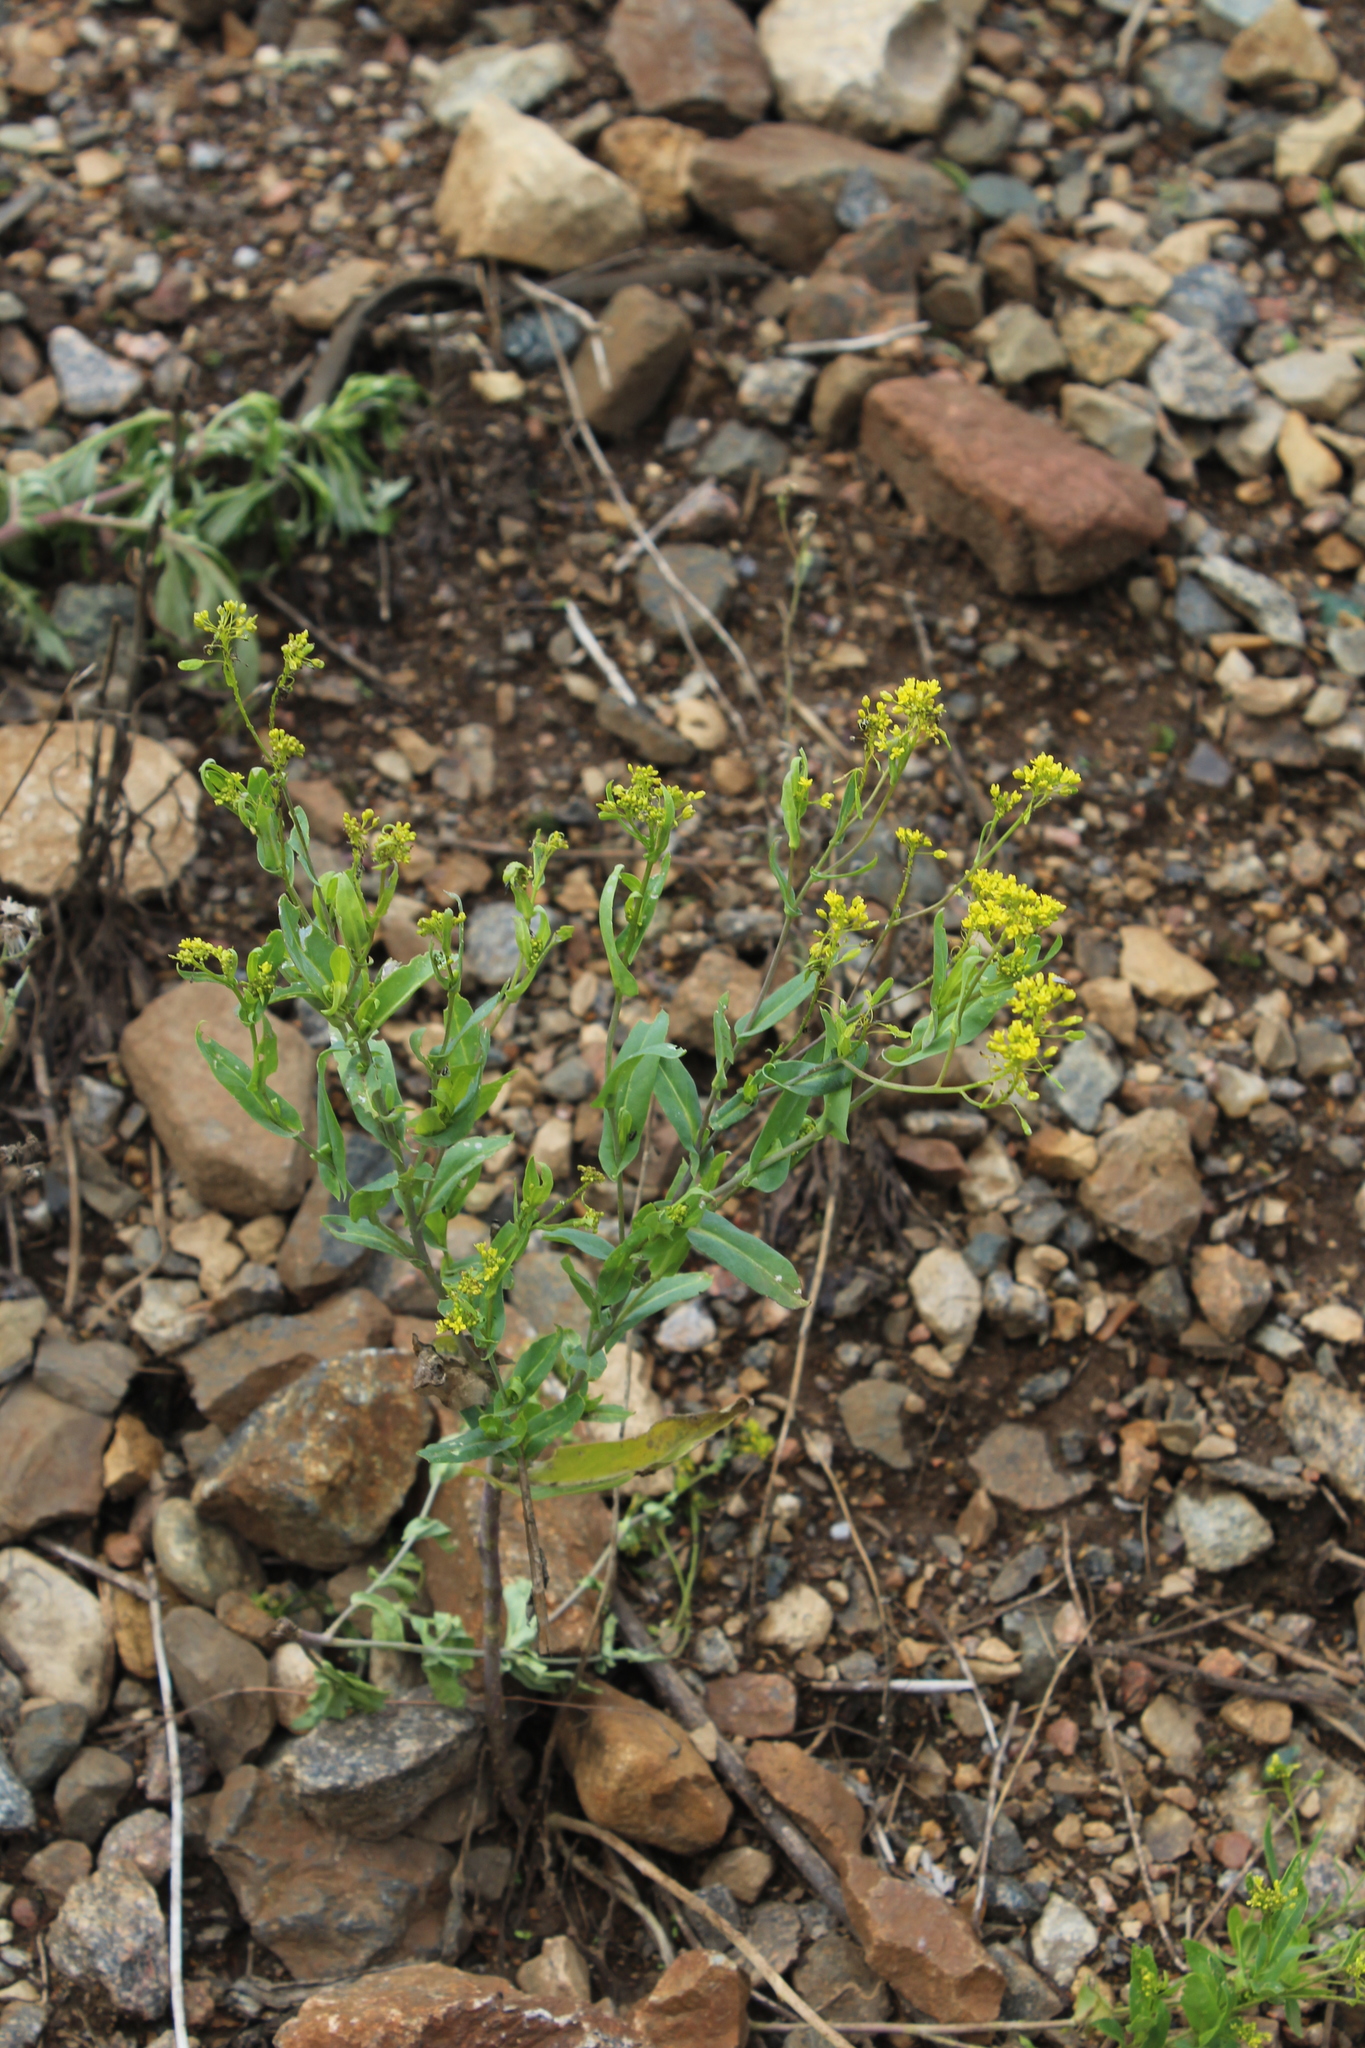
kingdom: Plantae
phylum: Tracheophyta
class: Magnoliopsida
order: Brassicales
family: Brassicaceae
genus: Isatis
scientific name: Isatis costata
